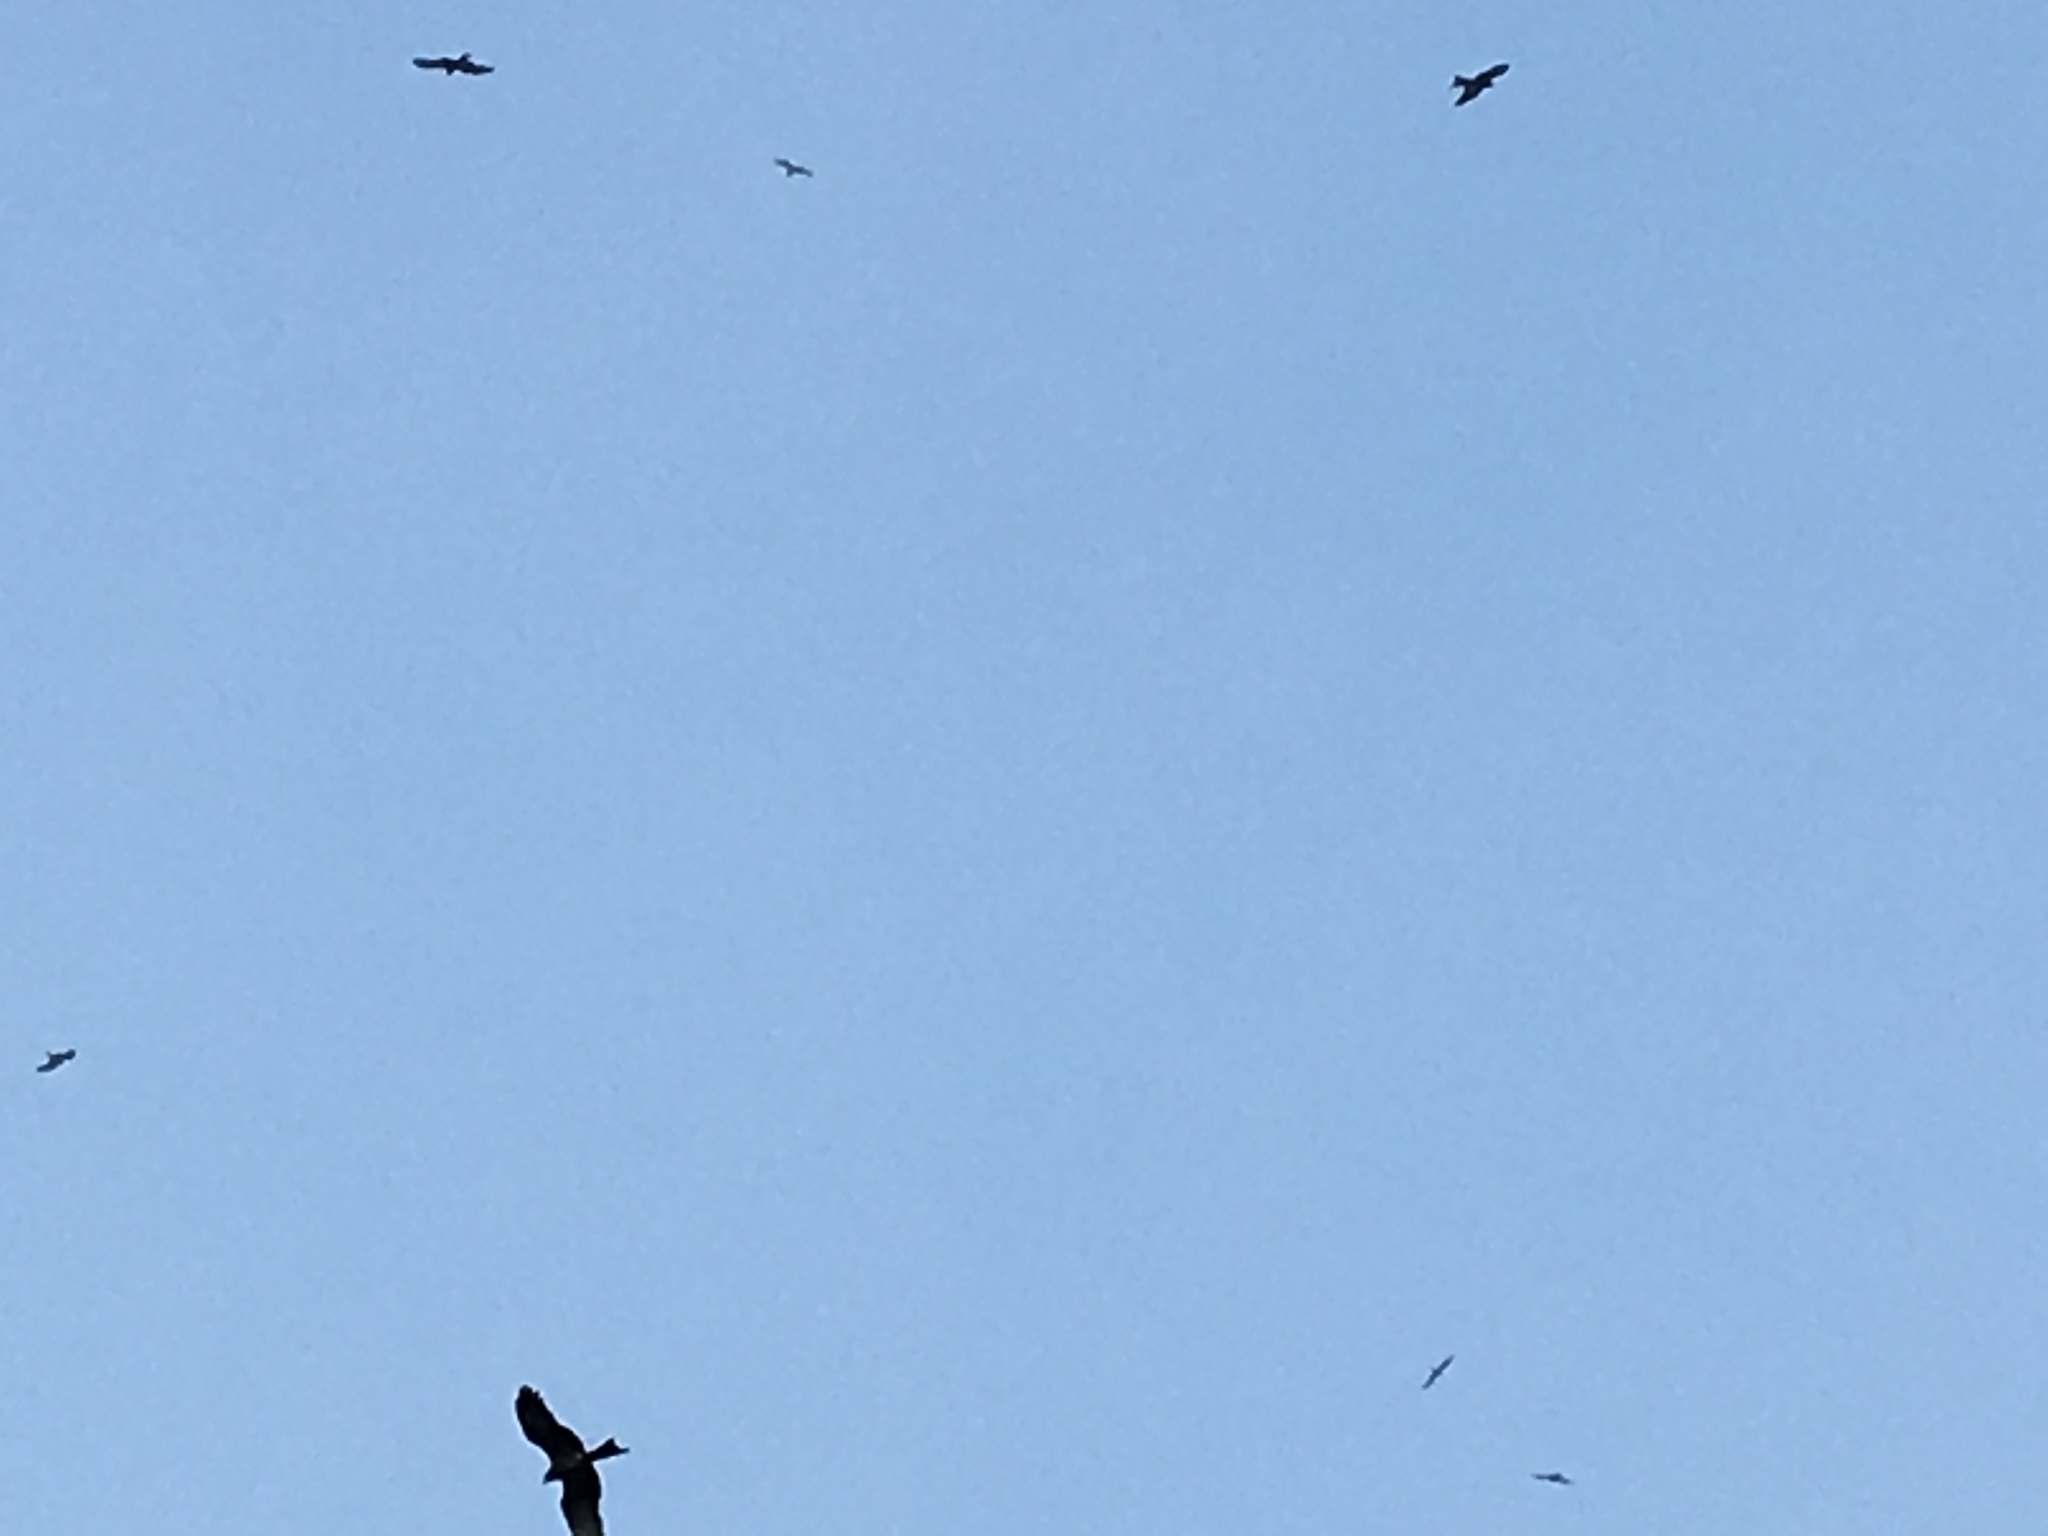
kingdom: Animalia
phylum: Chordata
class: Aves
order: Accipitriformes
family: Accipitridae
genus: Milvus
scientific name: Milvus migrans
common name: Black kite
